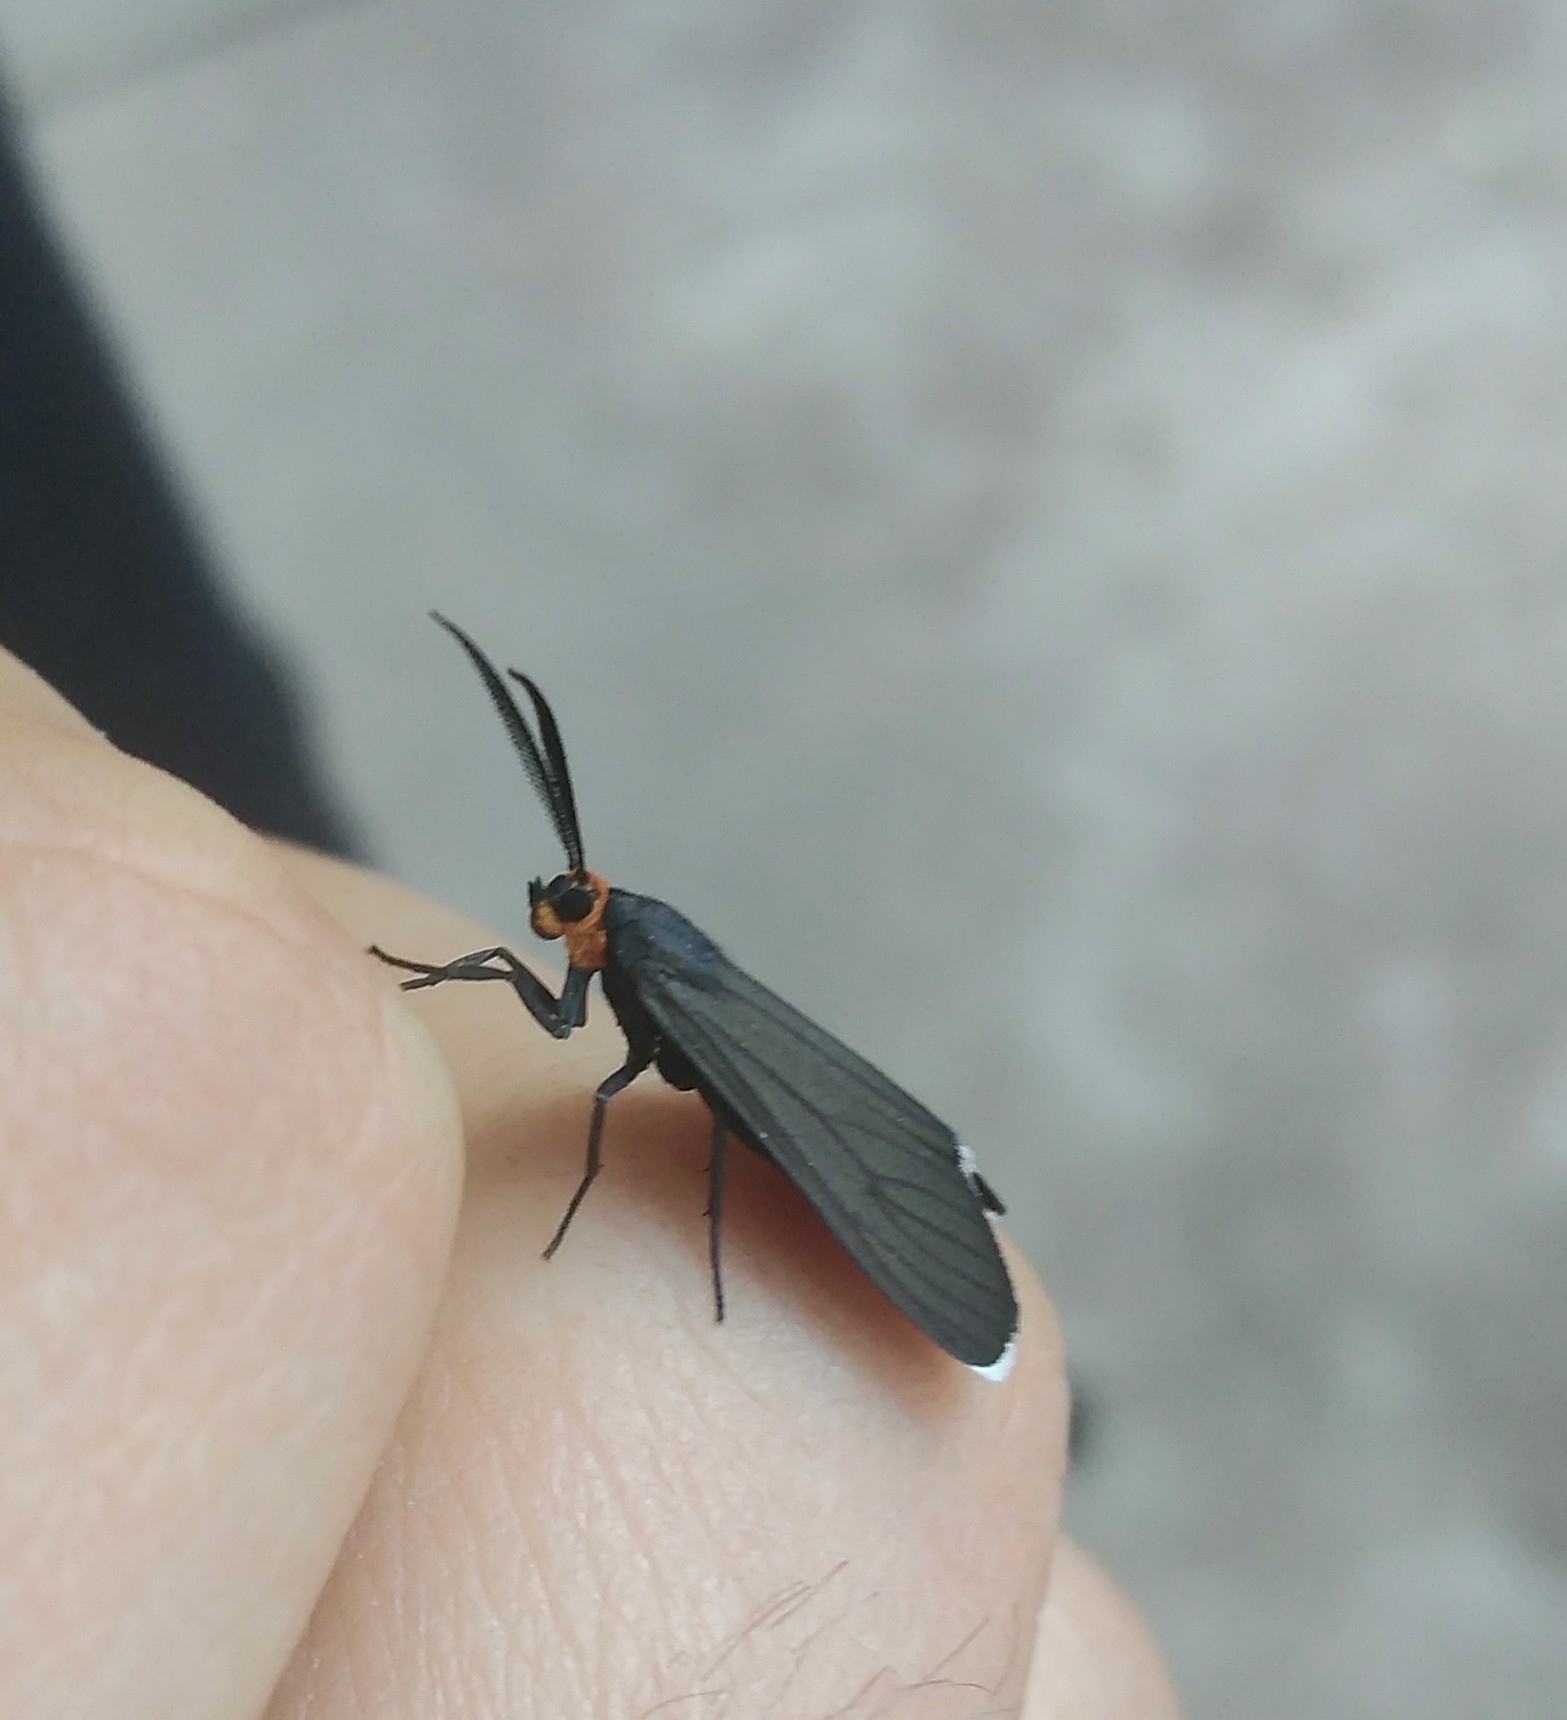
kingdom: Animalia
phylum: Arthropoda
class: Insecta
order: Lepidoptera
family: Erebidae
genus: Ctenucha
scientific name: Ctenucha rubriceps
